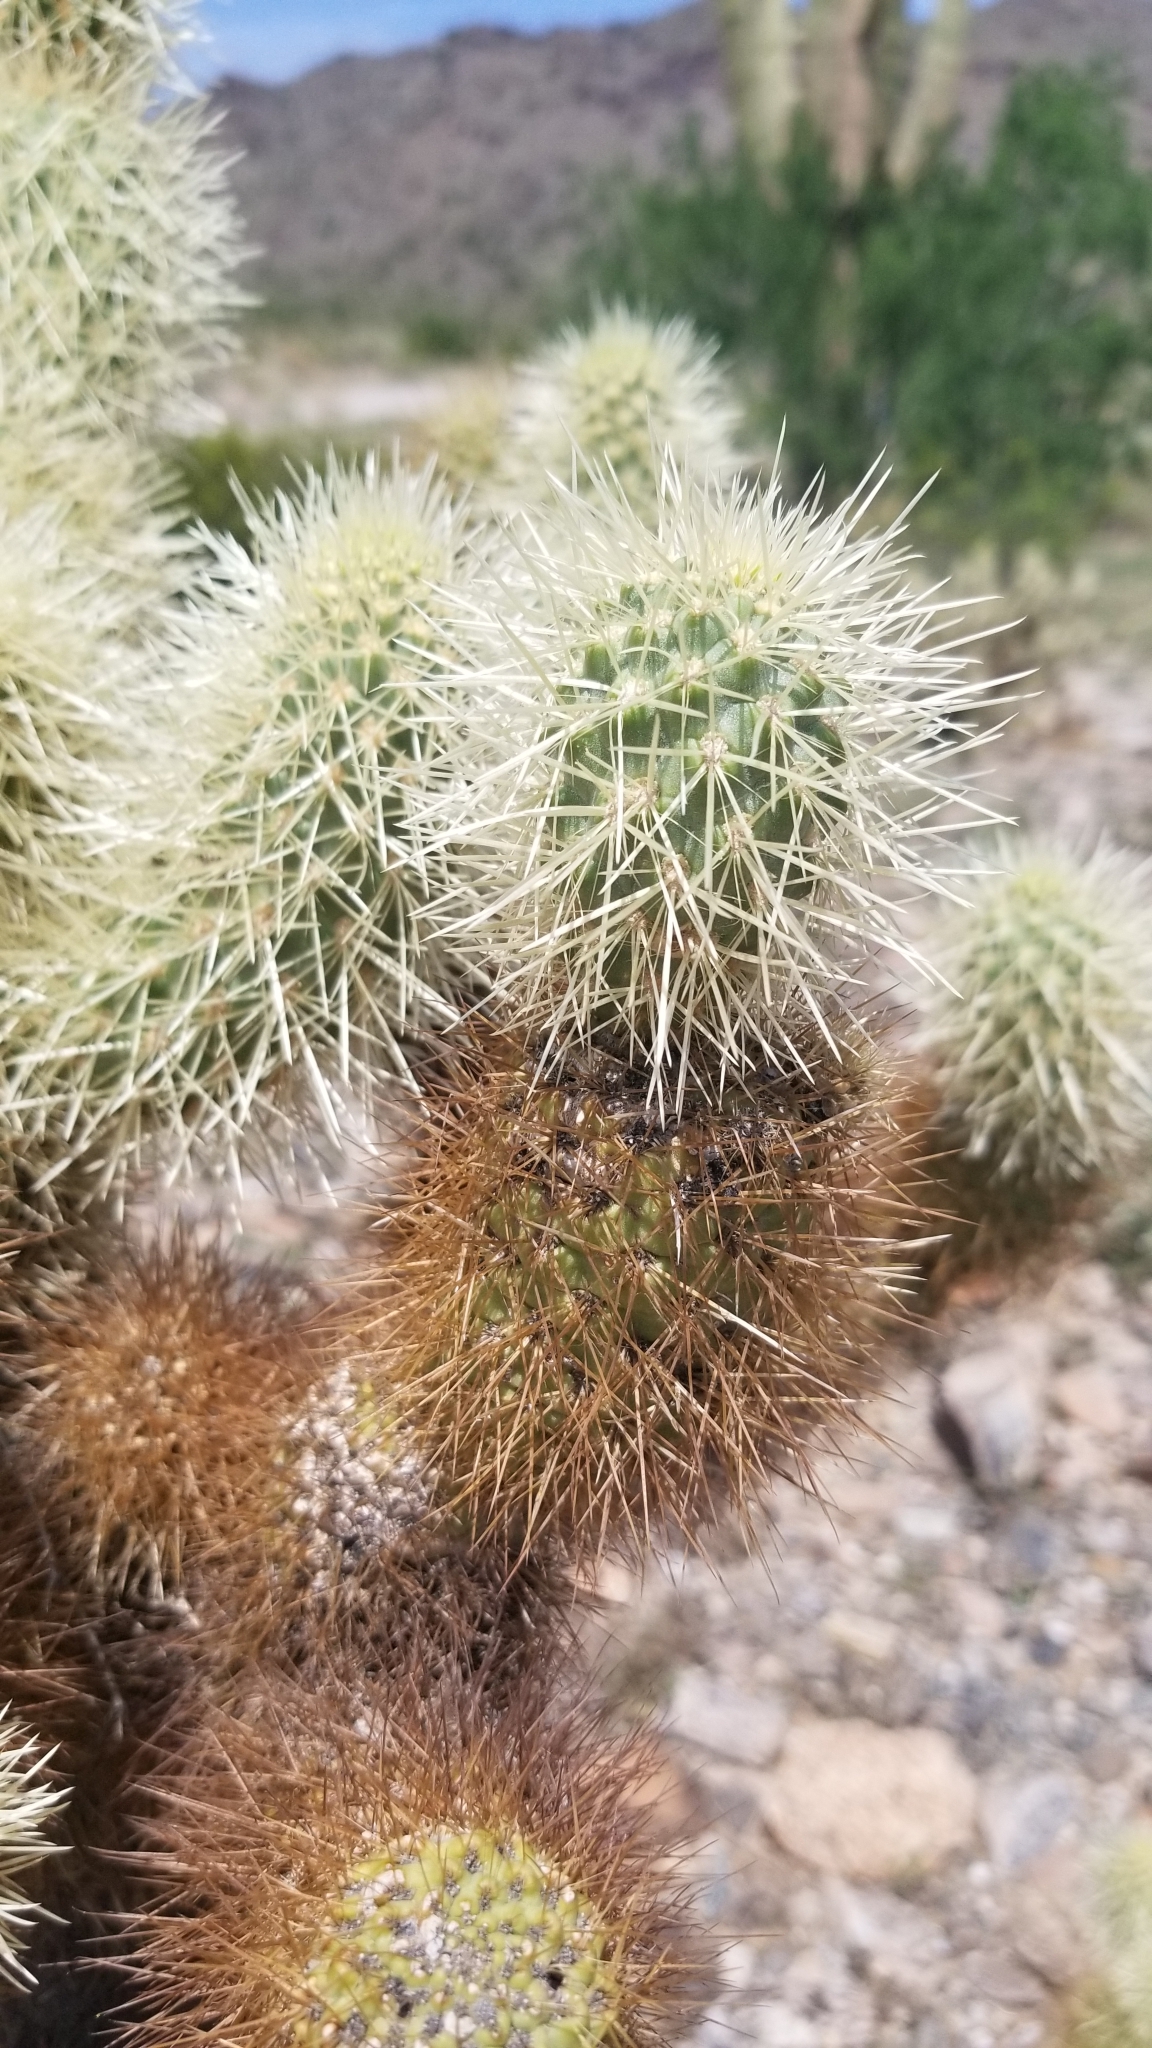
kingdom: Plantae
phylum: Tracheophyta
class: Magnoliopsida
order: Caryophyllales
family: Cactaceae
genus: Cylindropuntia
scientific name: Cylindropuntia fosbergii
